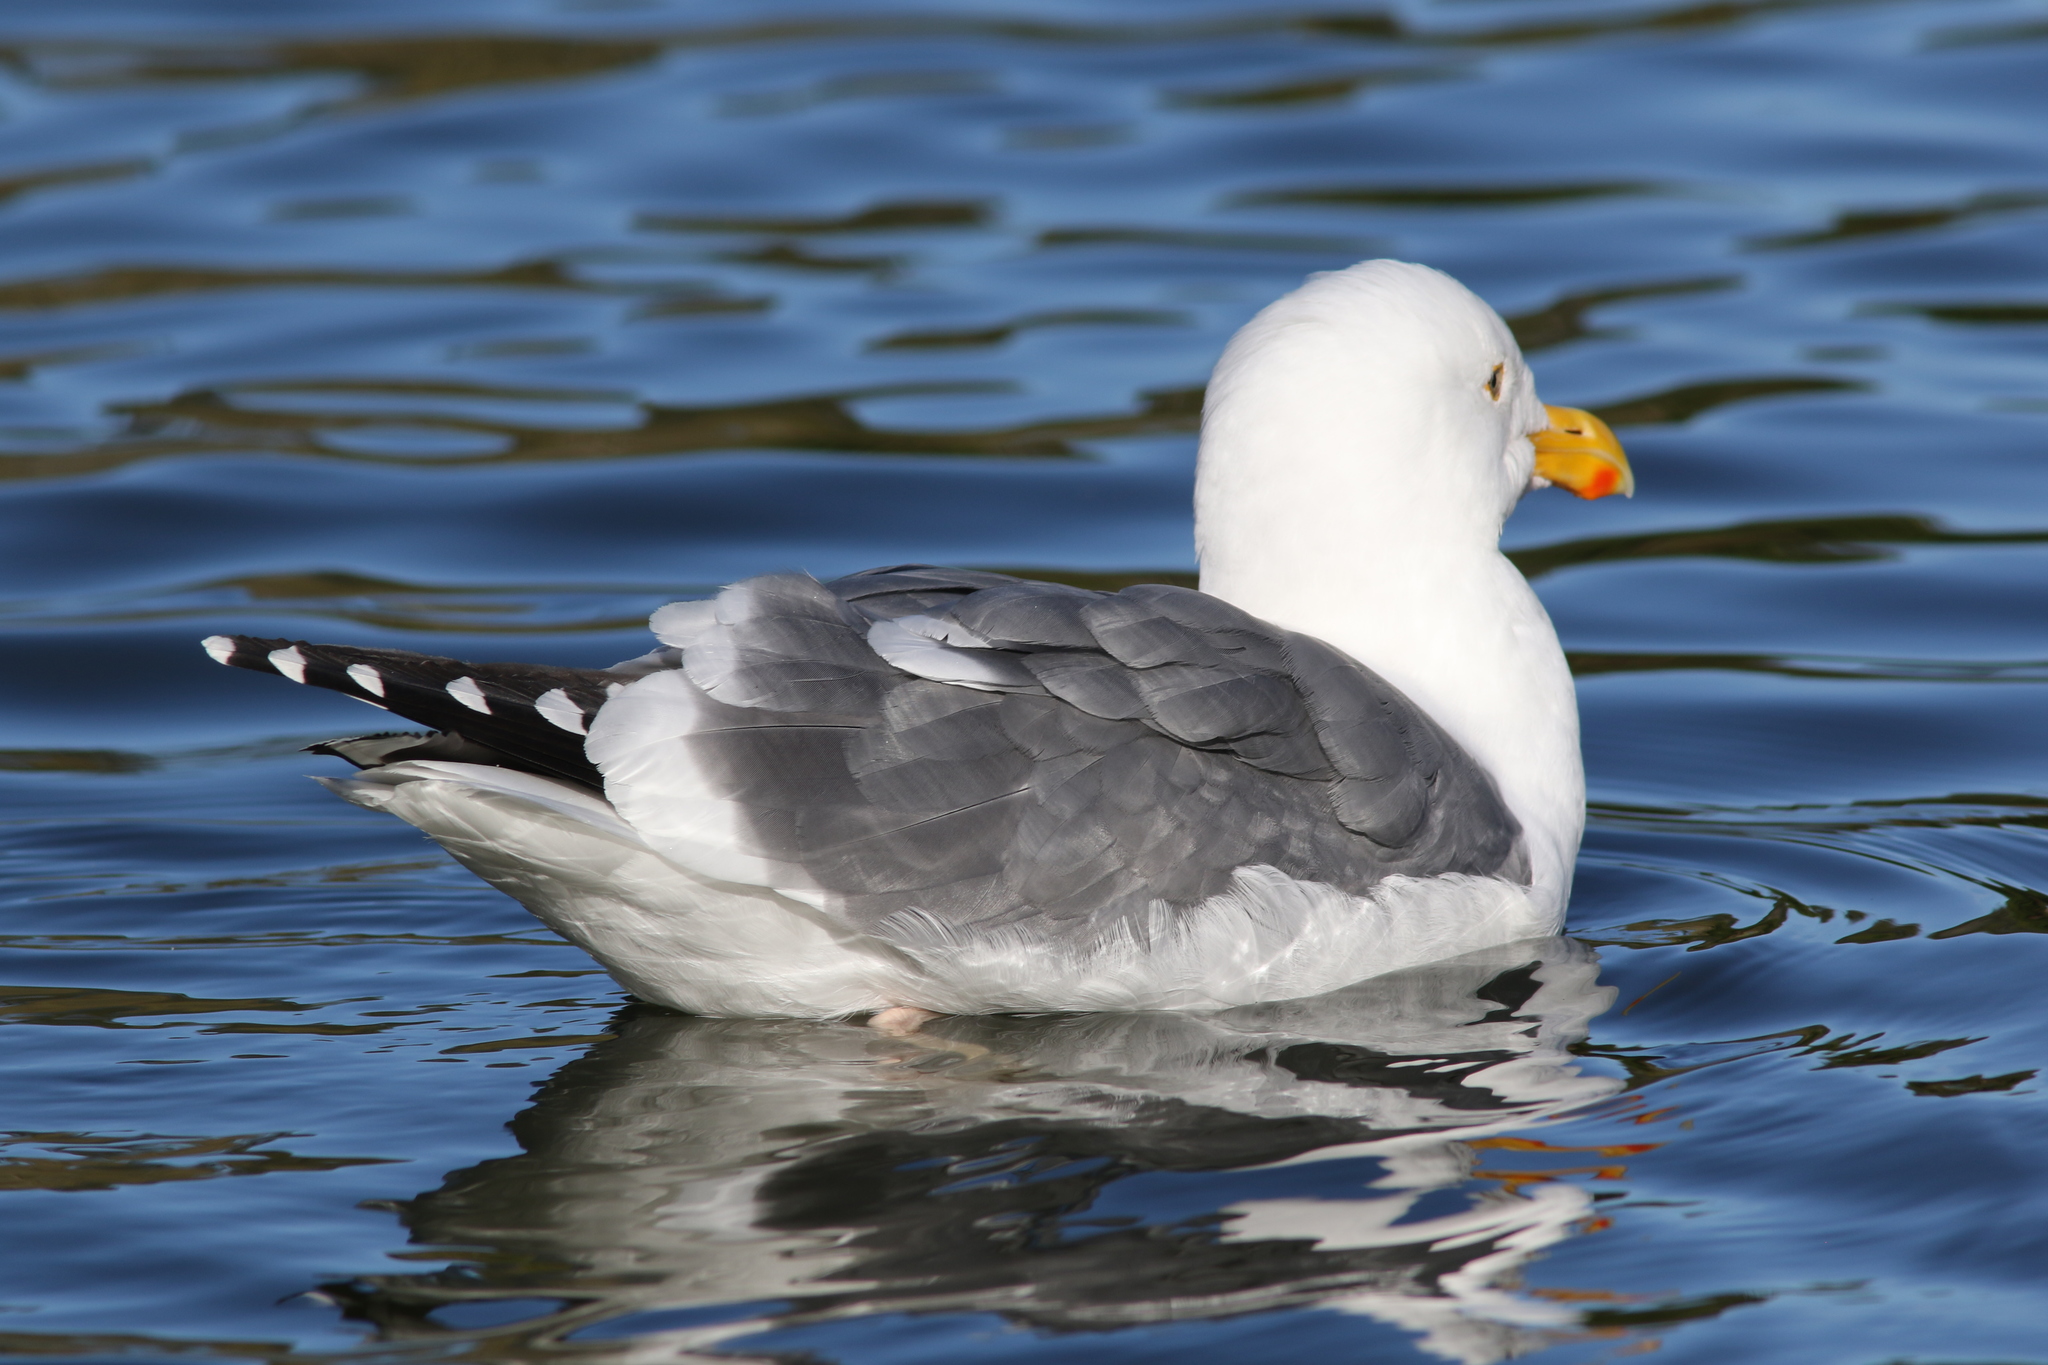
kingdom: Animalia
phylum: Chordata
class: Aves
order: Charadriiformes
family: Laridae
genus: Larus
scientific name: Larus occidentalis
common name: Western gull
